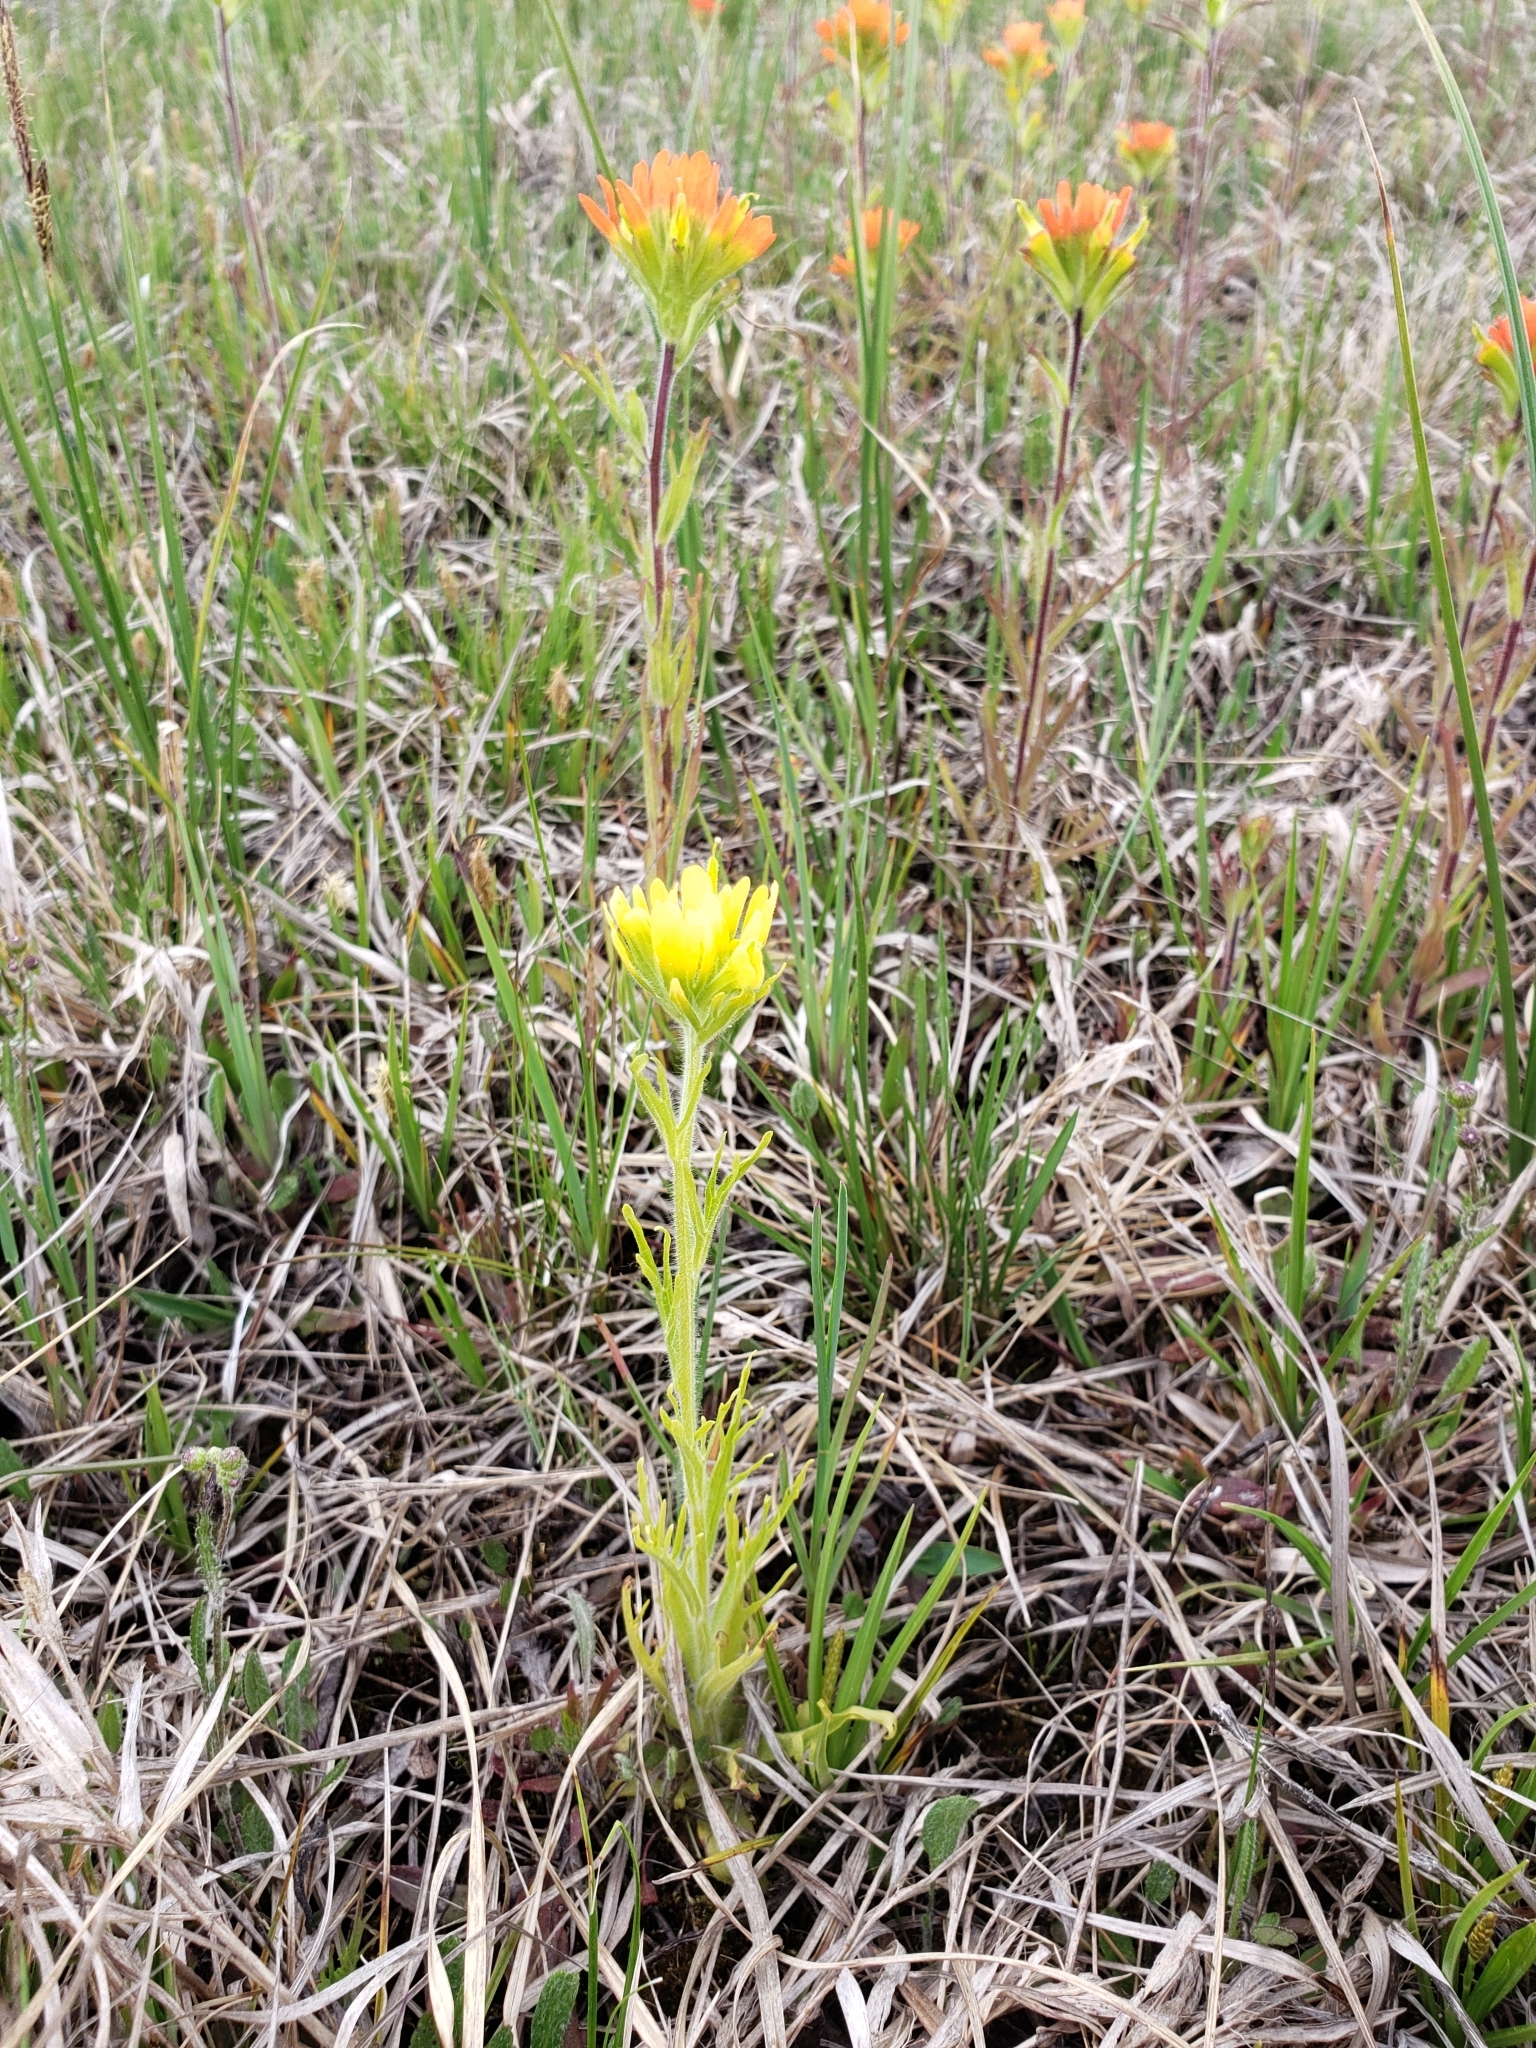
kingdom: Plantae
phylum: Tracheophyta
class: Magnoliopsida
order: Lamiales
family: Orobanchaceae
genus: Castilleja
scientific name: Castilleja coccinea
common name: Scarlet paintbrush
